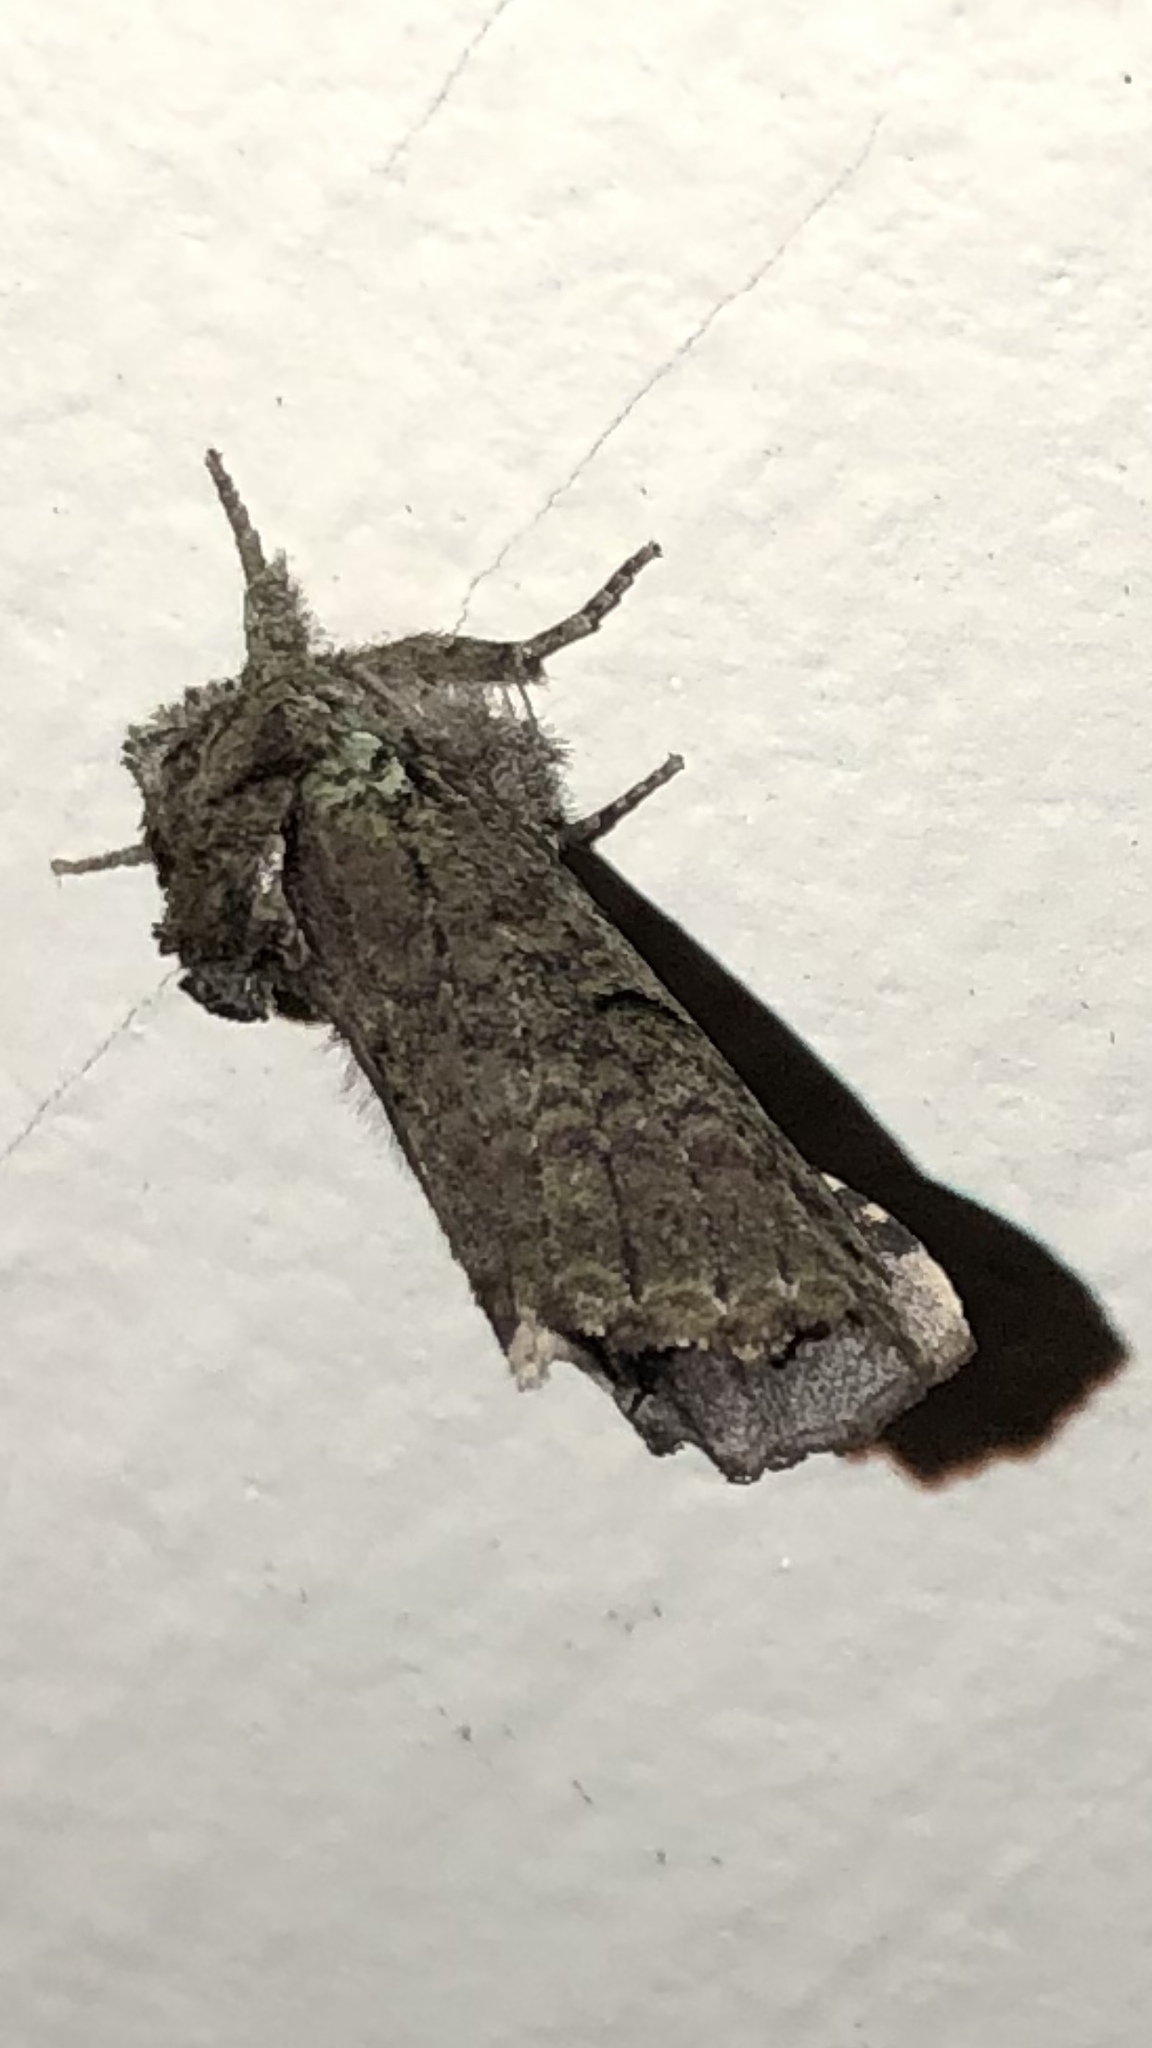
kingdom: Animalia
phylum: Arthropoda
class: Insecta
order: Lepidoptera
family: Notodontidae
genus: Schizura
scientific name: Schizura
